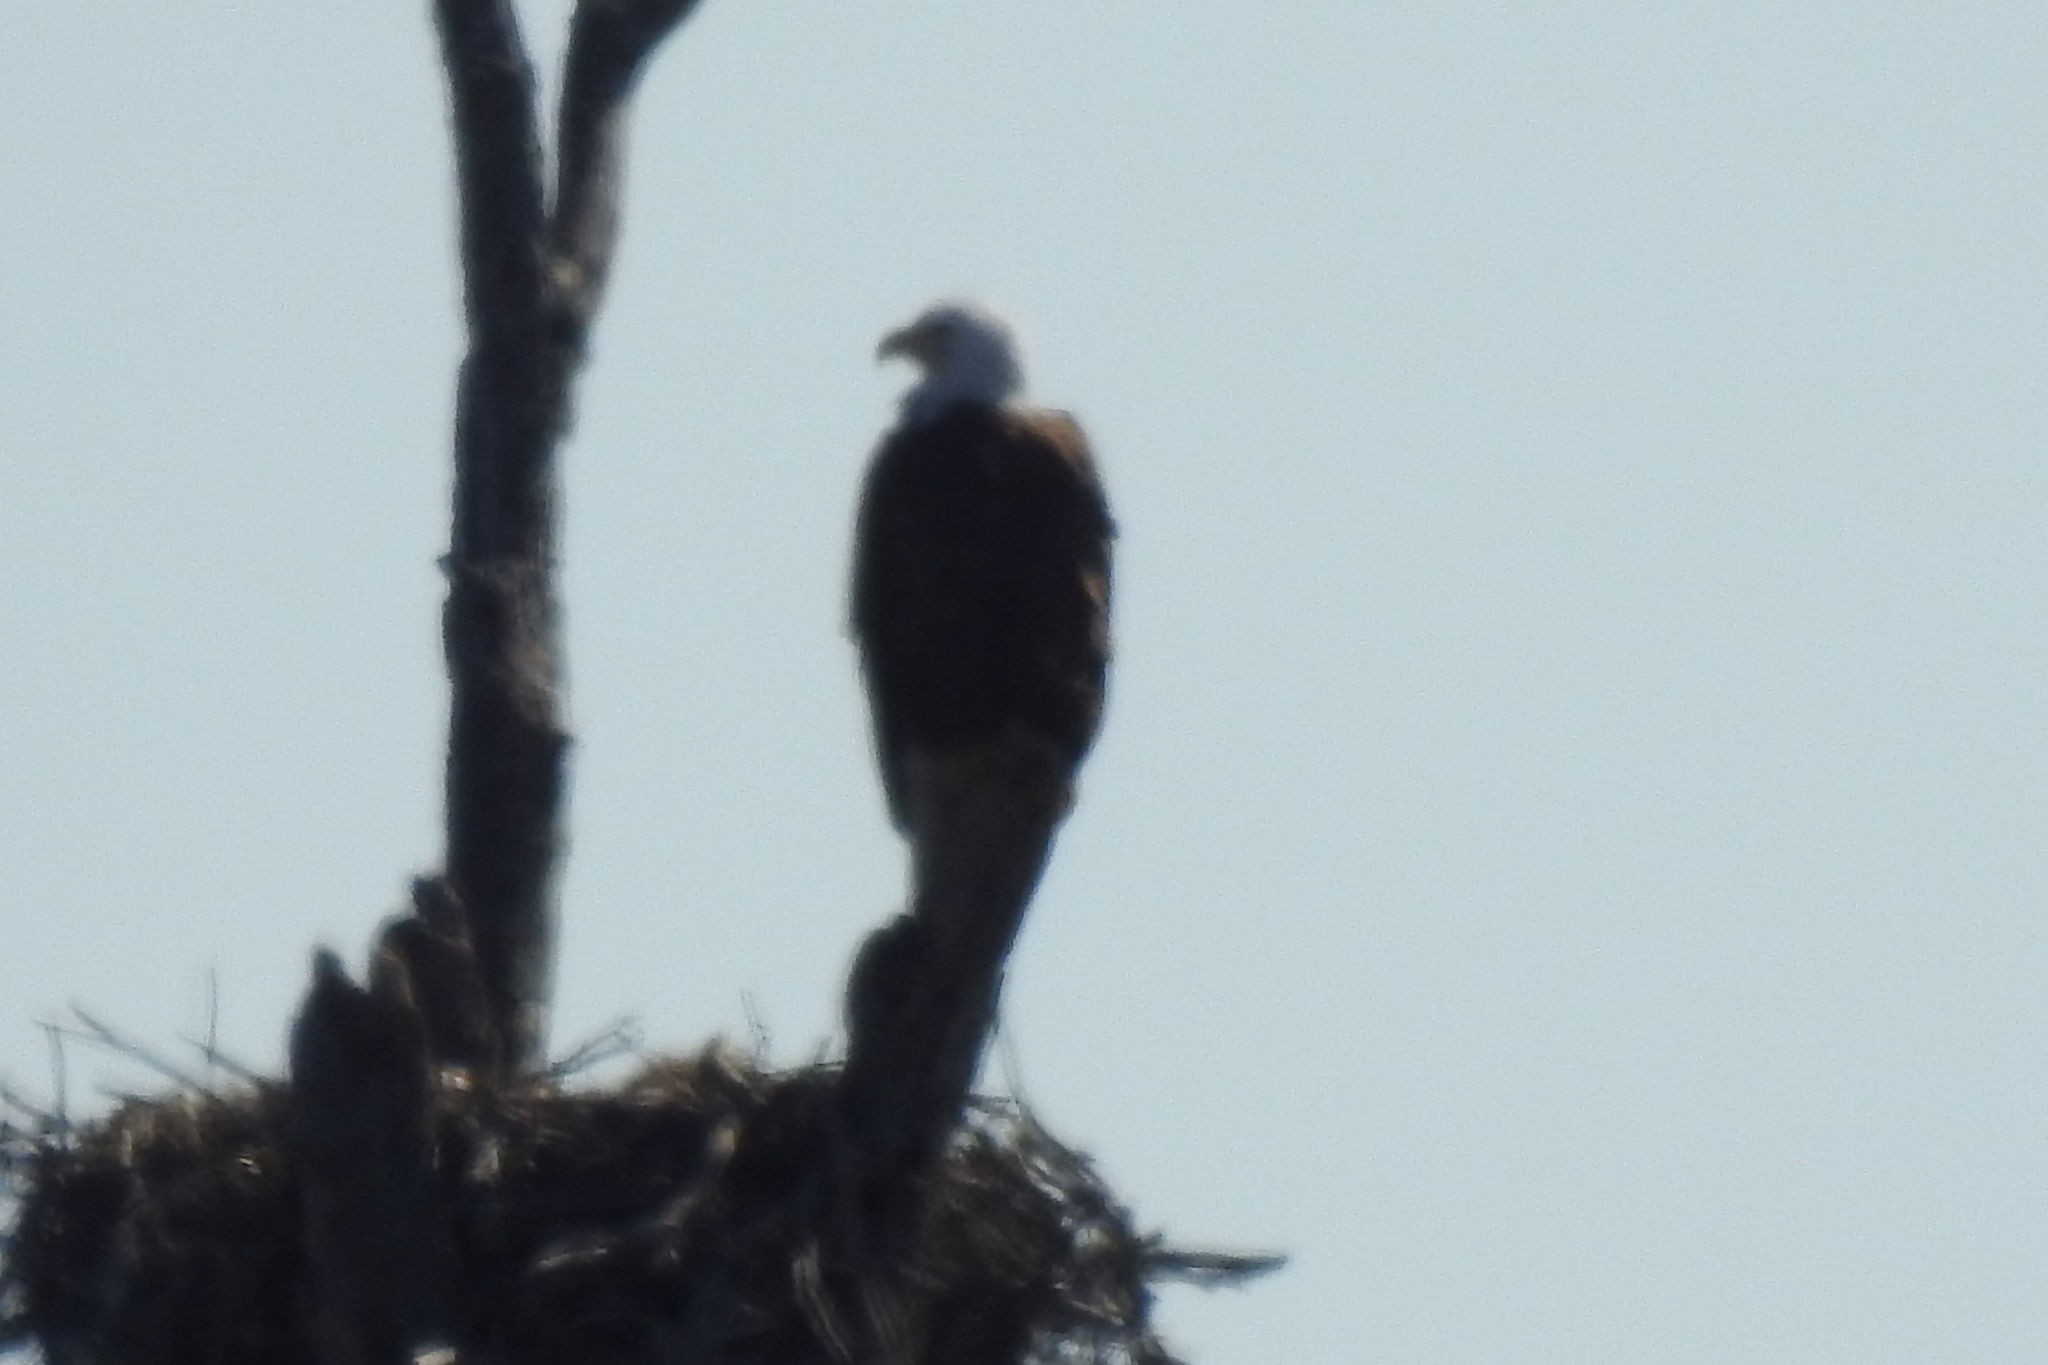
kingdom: Animalia
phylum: Chordata
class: Aves
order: Accipitriformes
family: Accipitridae
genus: Haliaeetus
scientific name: Haliaeetus leucocephalus
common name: Bald eagle
